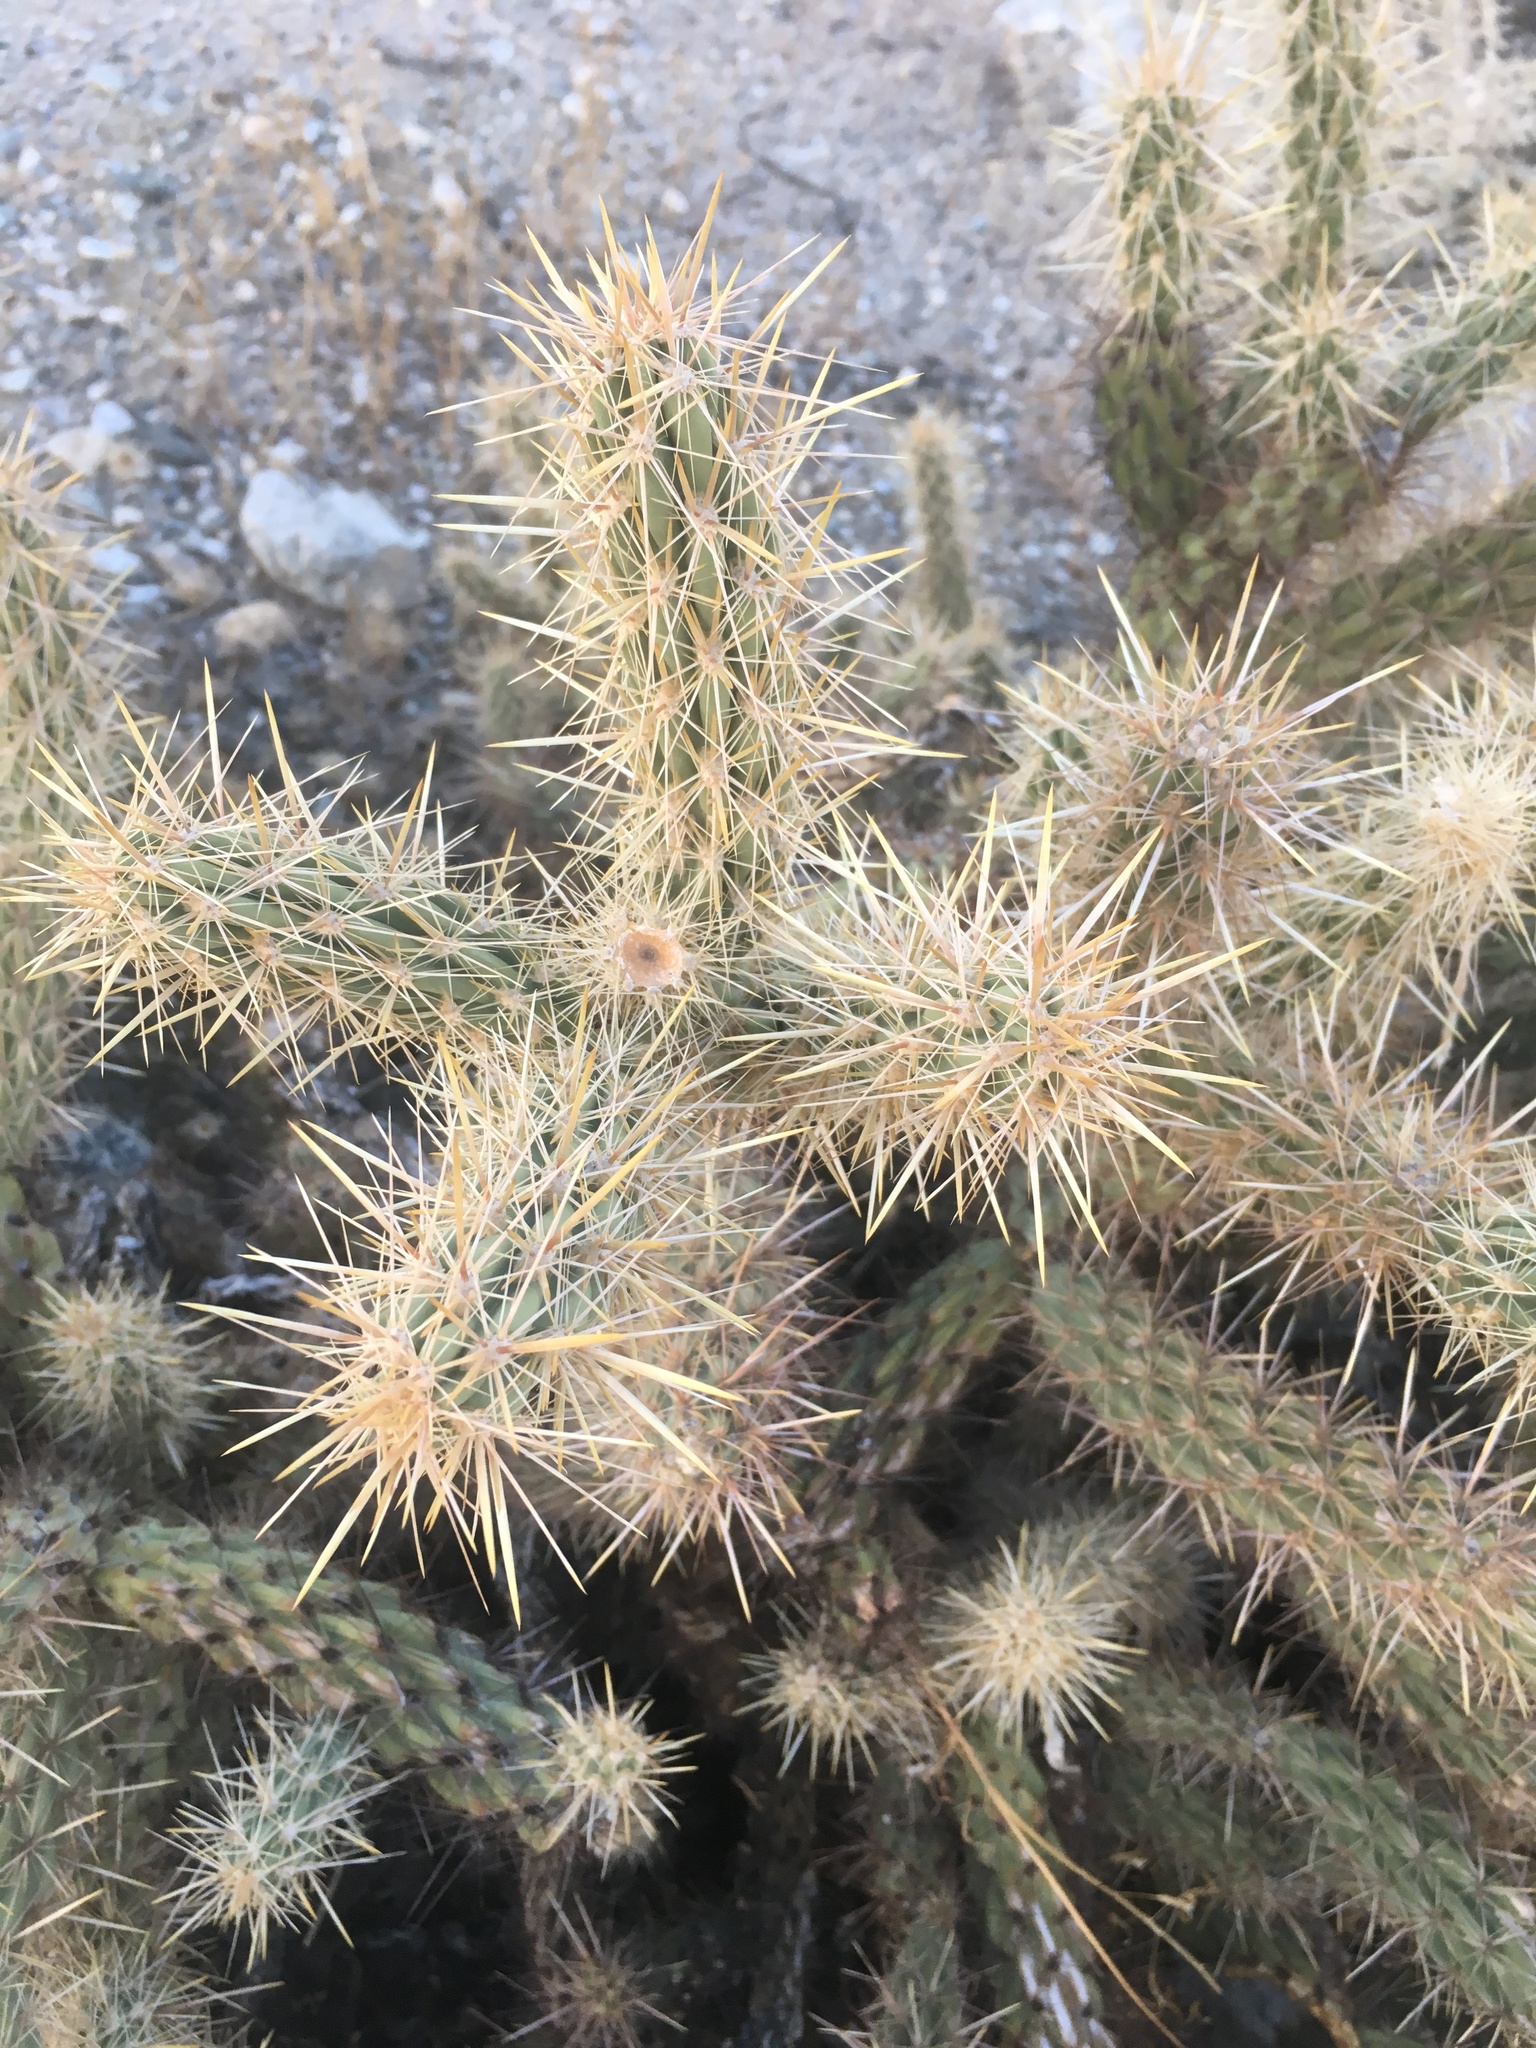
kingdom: Plantae
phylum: Tracheophyta
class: Magnoliopsida
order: Caryophyllales
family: Cactaceae
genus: Cylindropuntia
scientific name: Cylindropuntia ganderi
